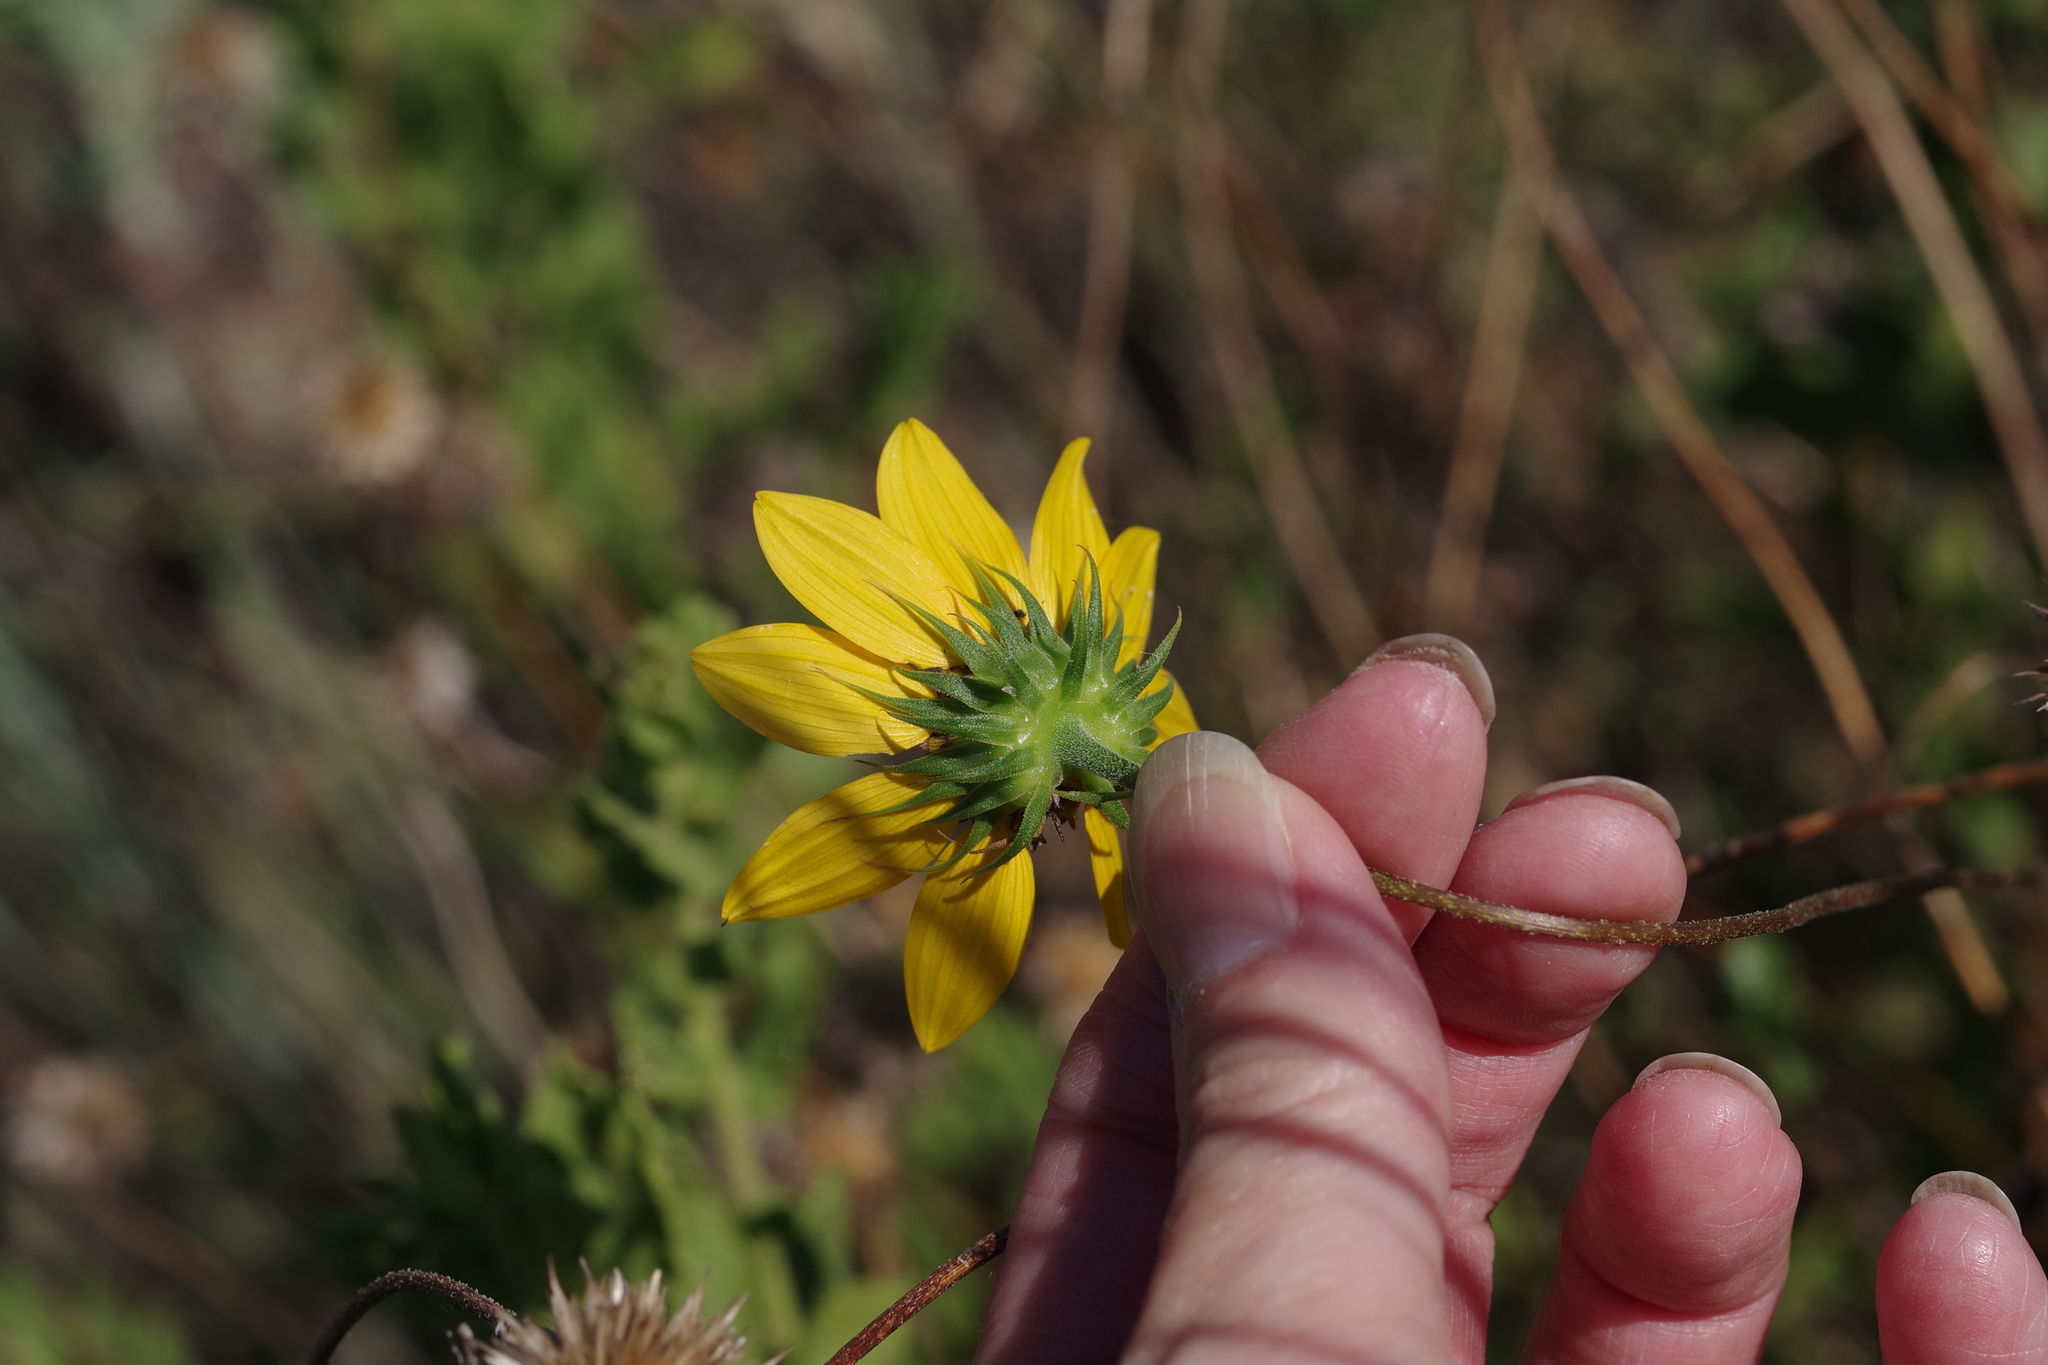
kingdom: Plantae
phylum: Tracheophyta
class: Magnoliopsida
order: Asterales
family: Asteraceae
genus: Helianthus
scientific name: Helianthus debilis
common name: Weak sunflower
